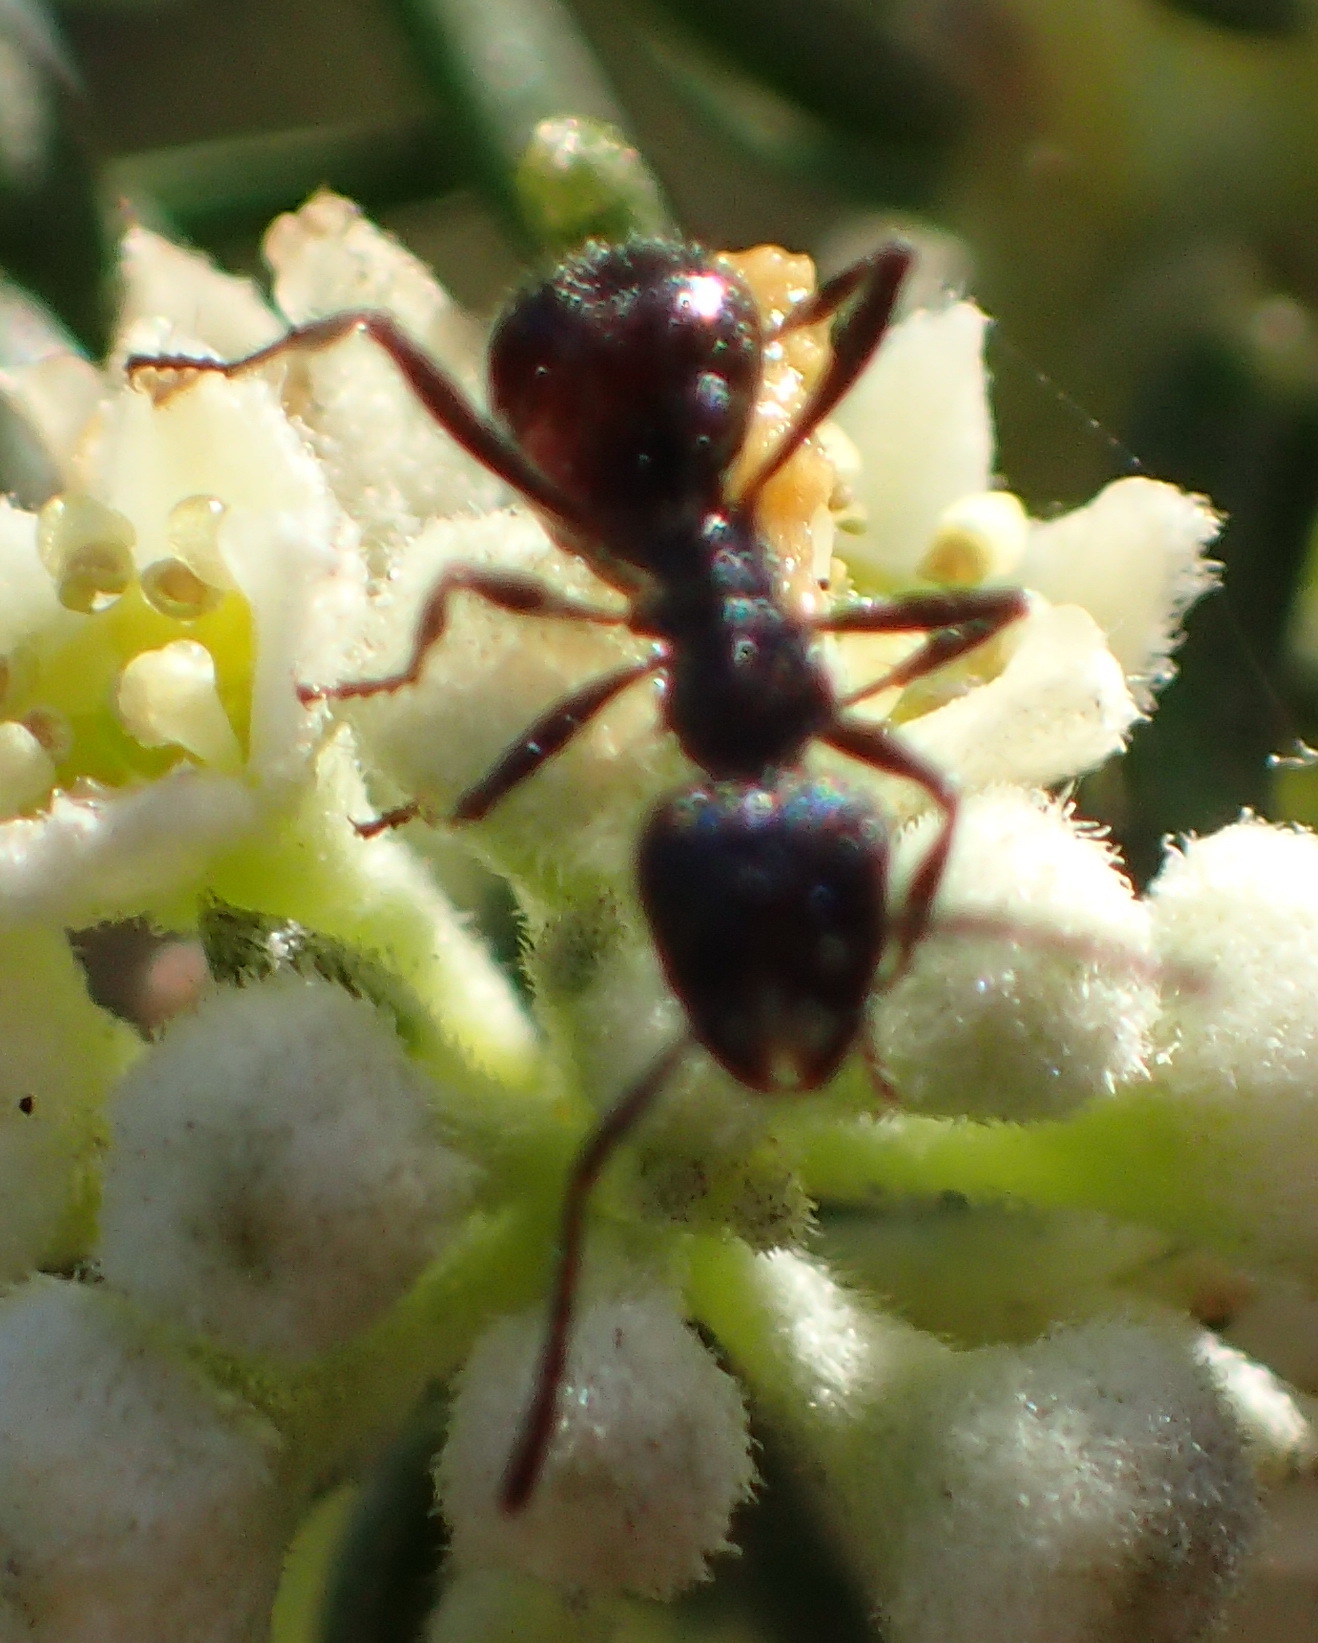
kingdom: Animalia
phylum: Arthropoda
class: Insecta
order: Hymenoptera
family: Formicidae
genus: Myrmicaria
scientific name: Myrmicaria nigra
